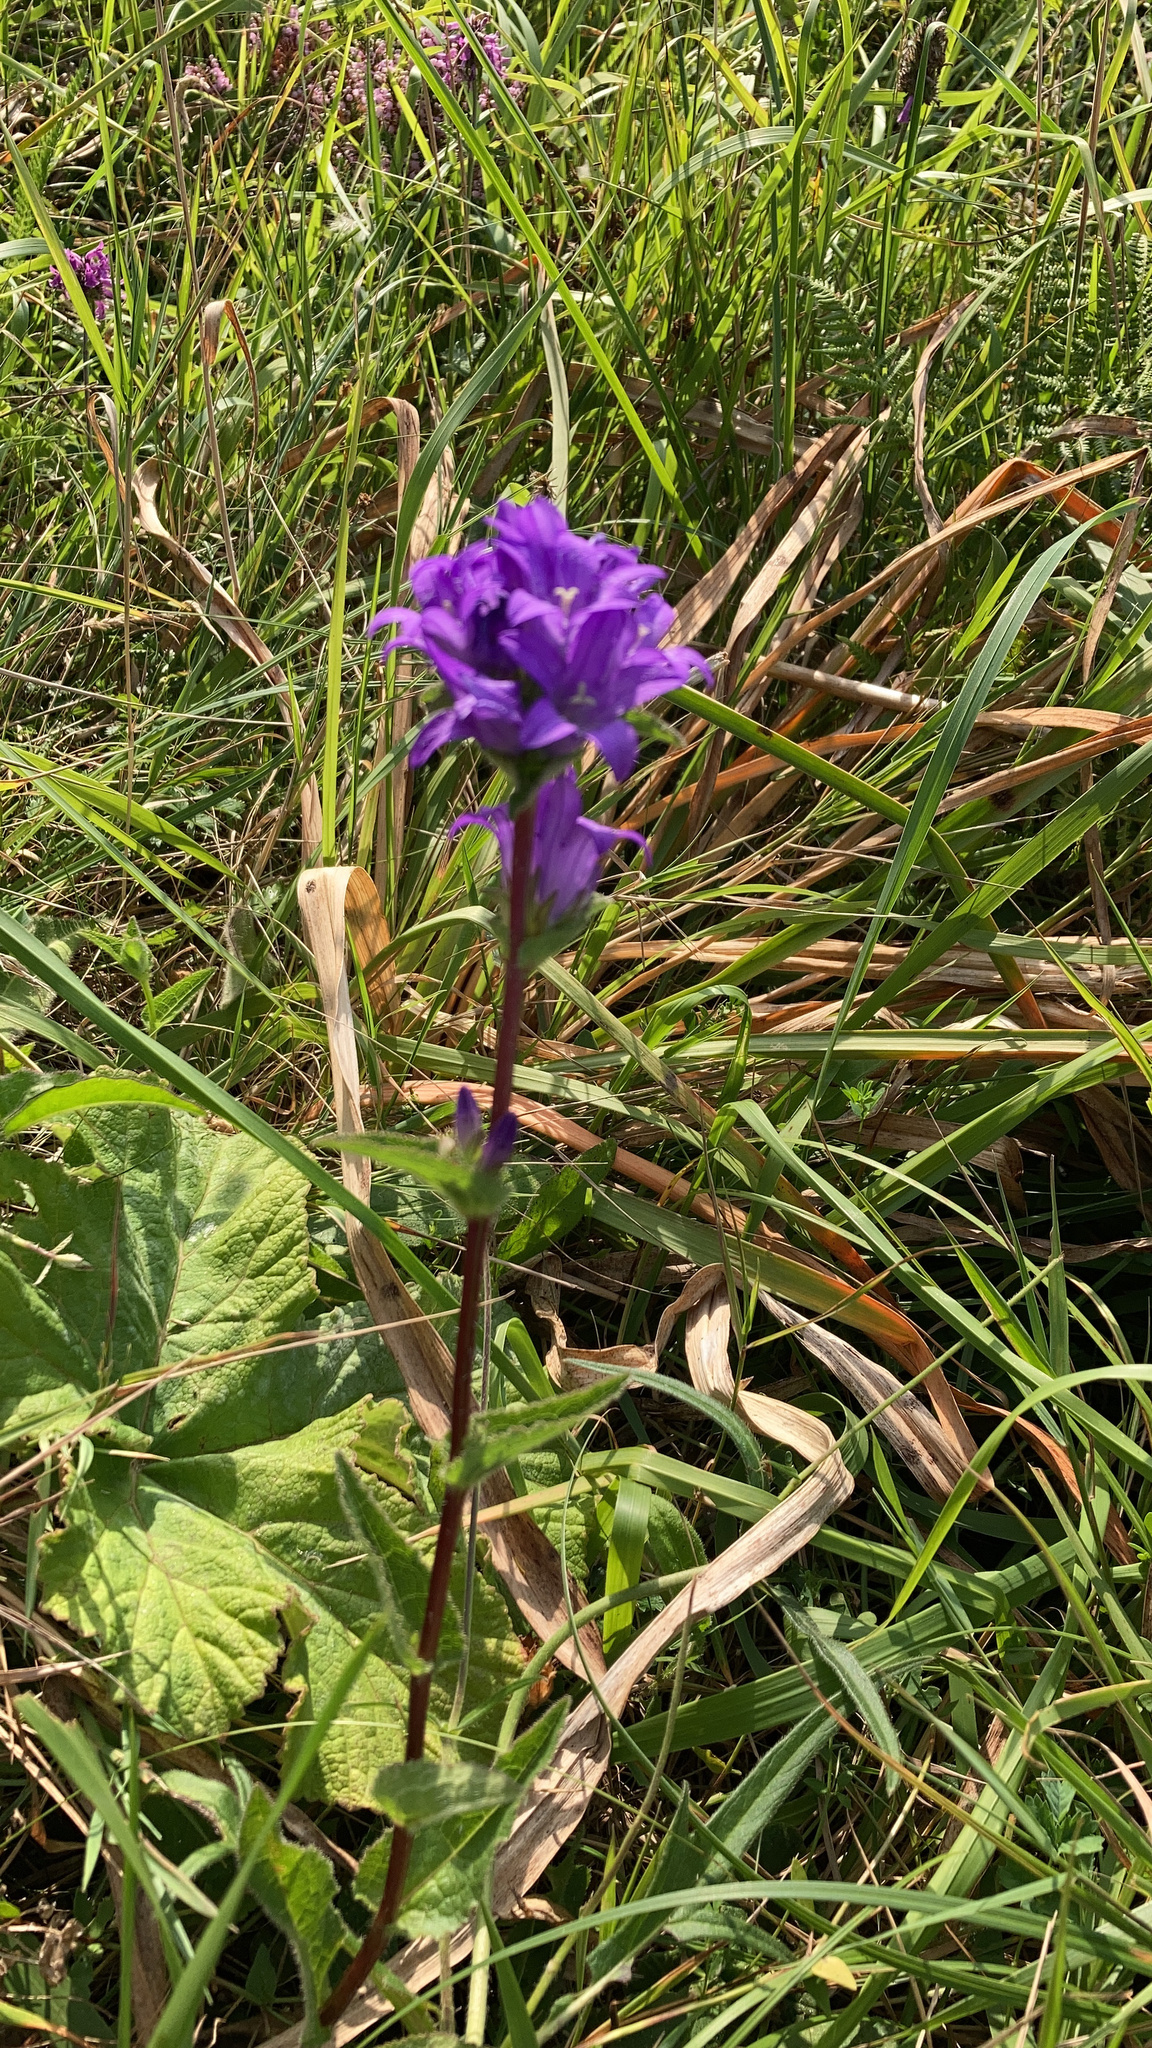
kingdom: Plantae
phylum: Tracheophyta
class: Magnoliopsida
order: Asterales
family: Campanulaceae
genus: Campanula
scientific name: Campanula glomerata
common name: Clustered bellflower
